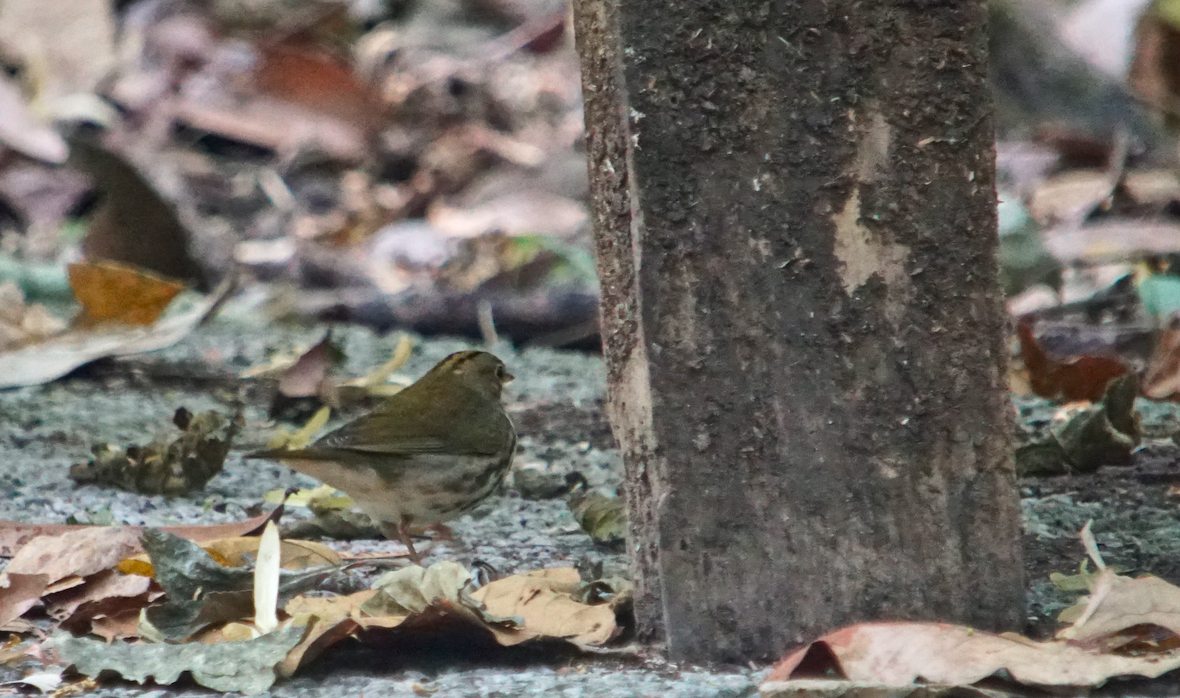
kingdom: Animalia
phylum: Chordata
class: Aves
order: Passeriformes
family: Parulidae
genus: Seiurus
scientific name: Seiurus aurocapilla
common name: Ovenbird
